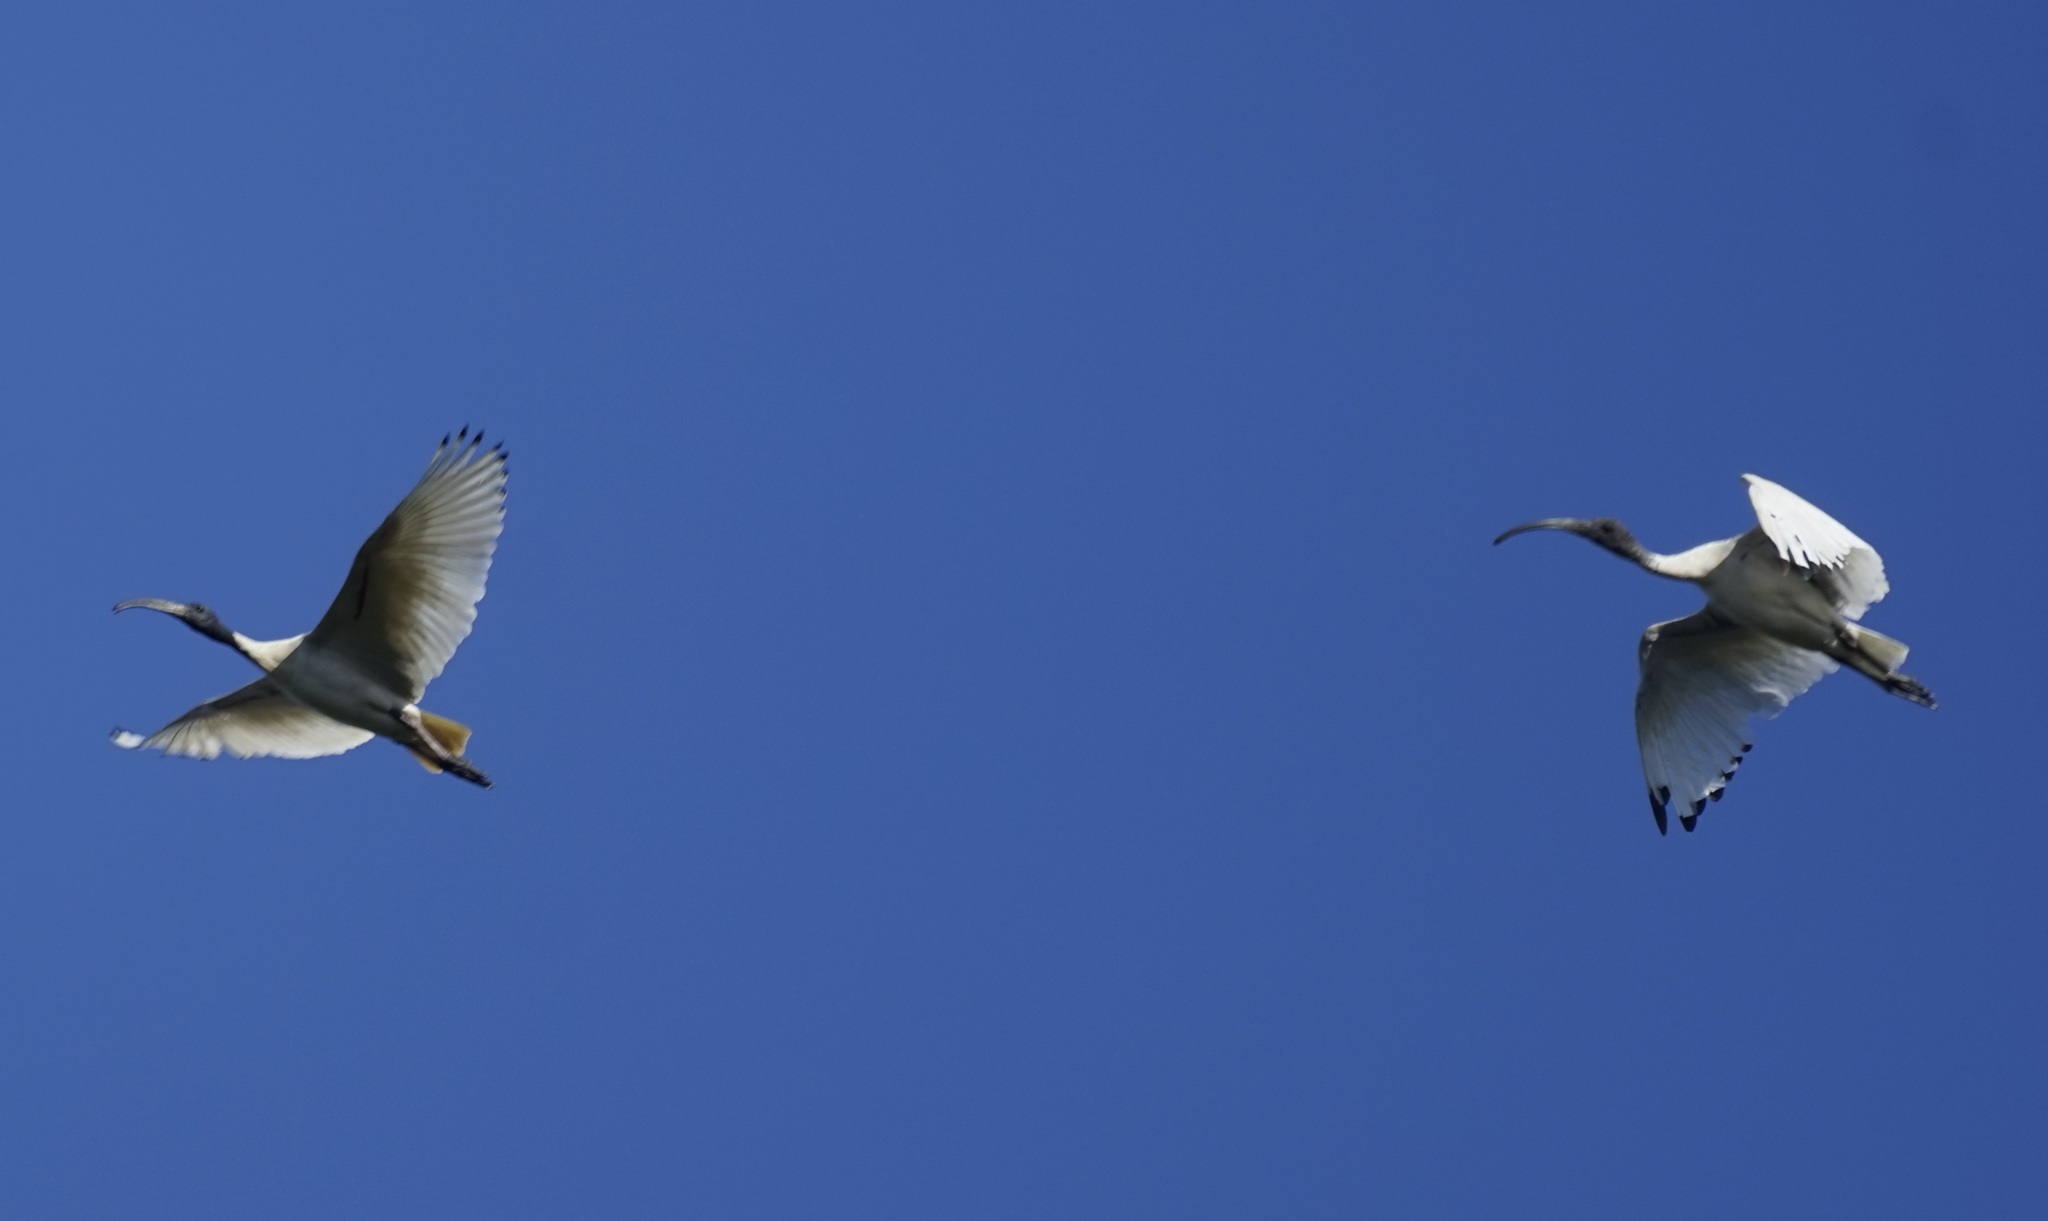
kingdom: Animalia
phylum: Chordata
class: Aves
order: Pelecaniformes
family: Threskiornithidae
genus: Threskiornis
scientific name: Threskiornis molucca
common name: Australian white ibis
